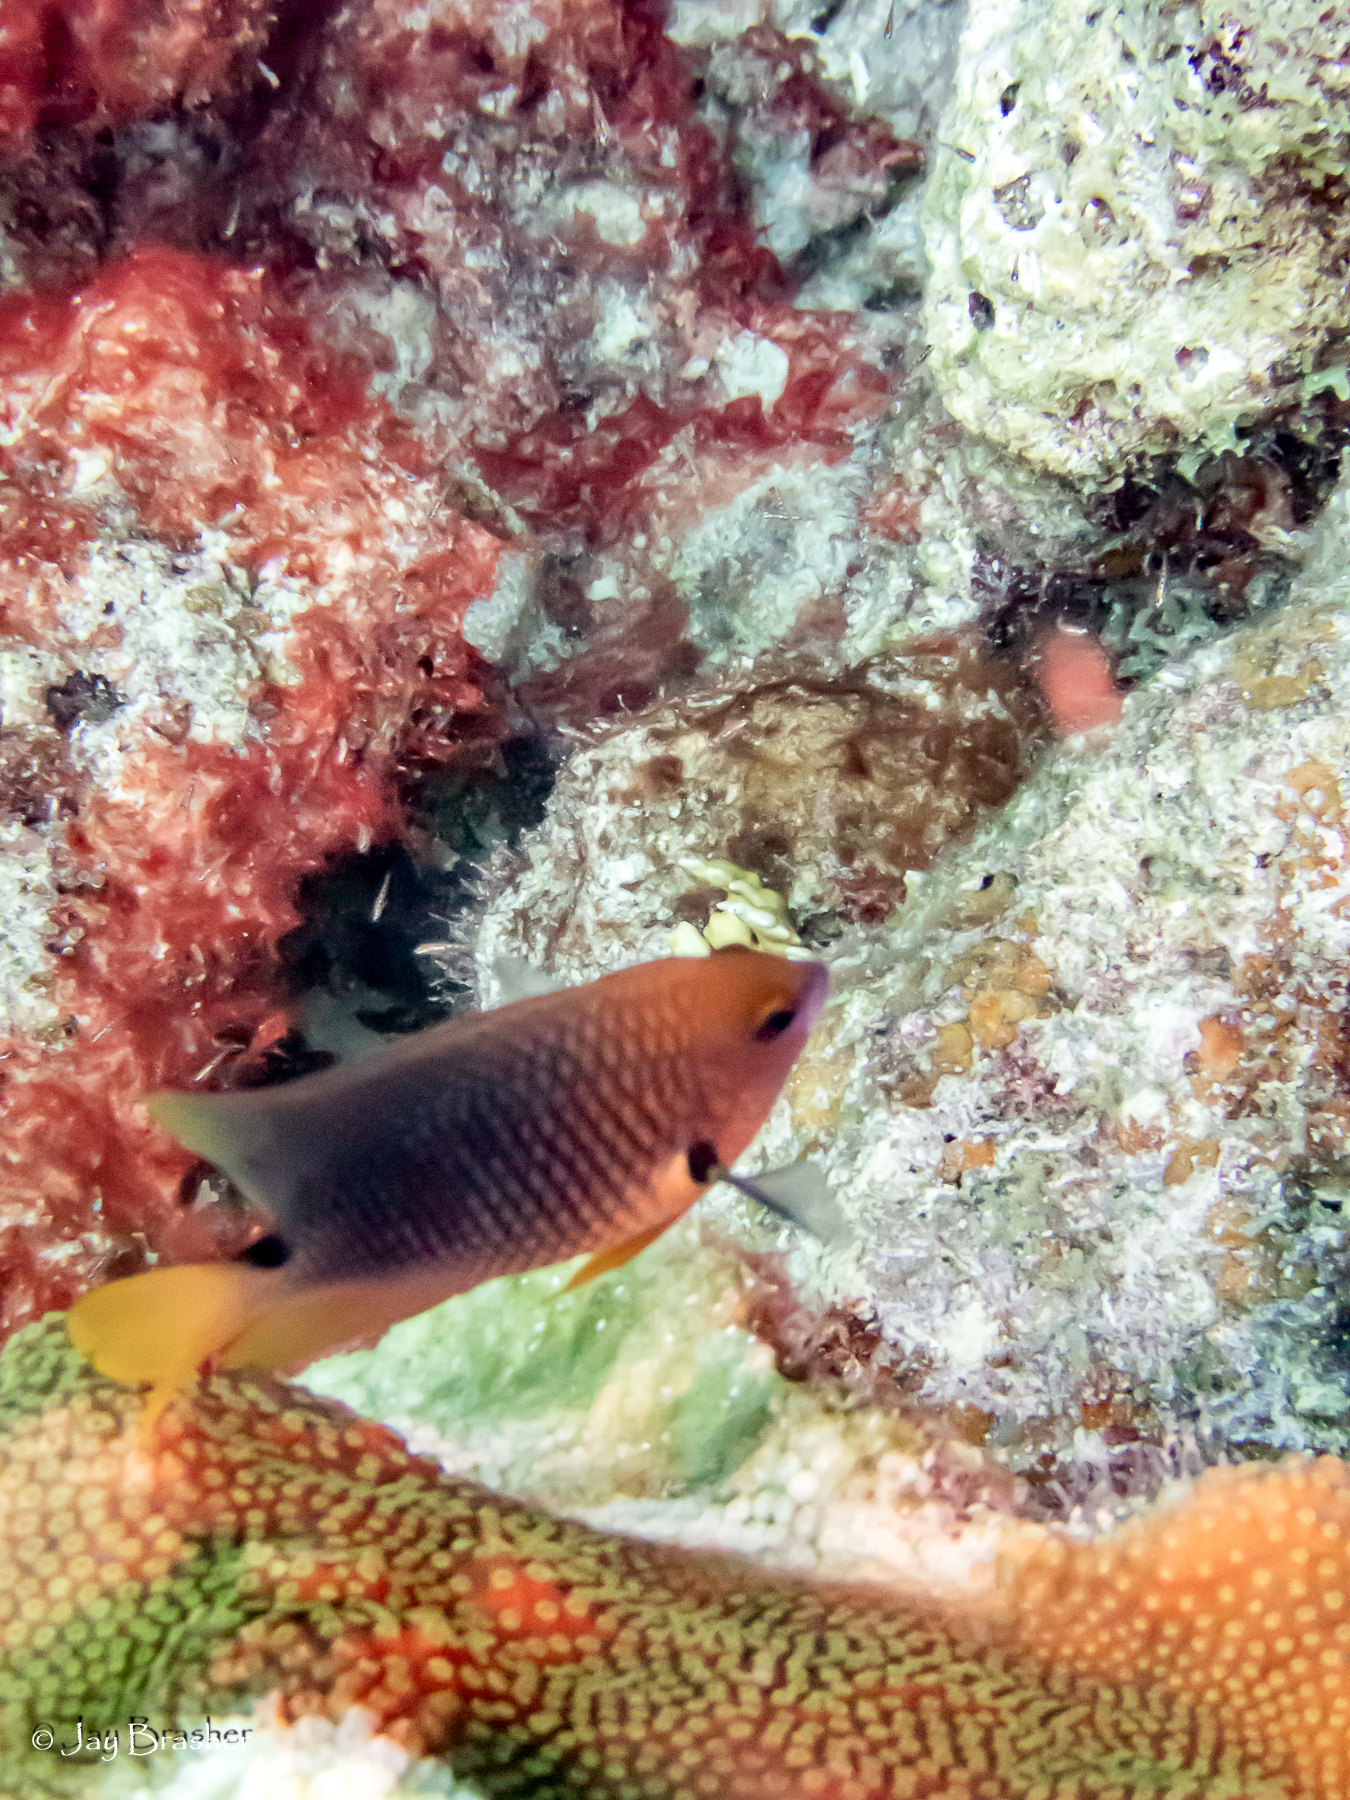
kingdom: Animalia
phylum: Chordata
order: Perciformes
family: Pomacentridae
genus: Stegastes
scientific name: Stegastes planifrons
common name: Threespot damselfish
